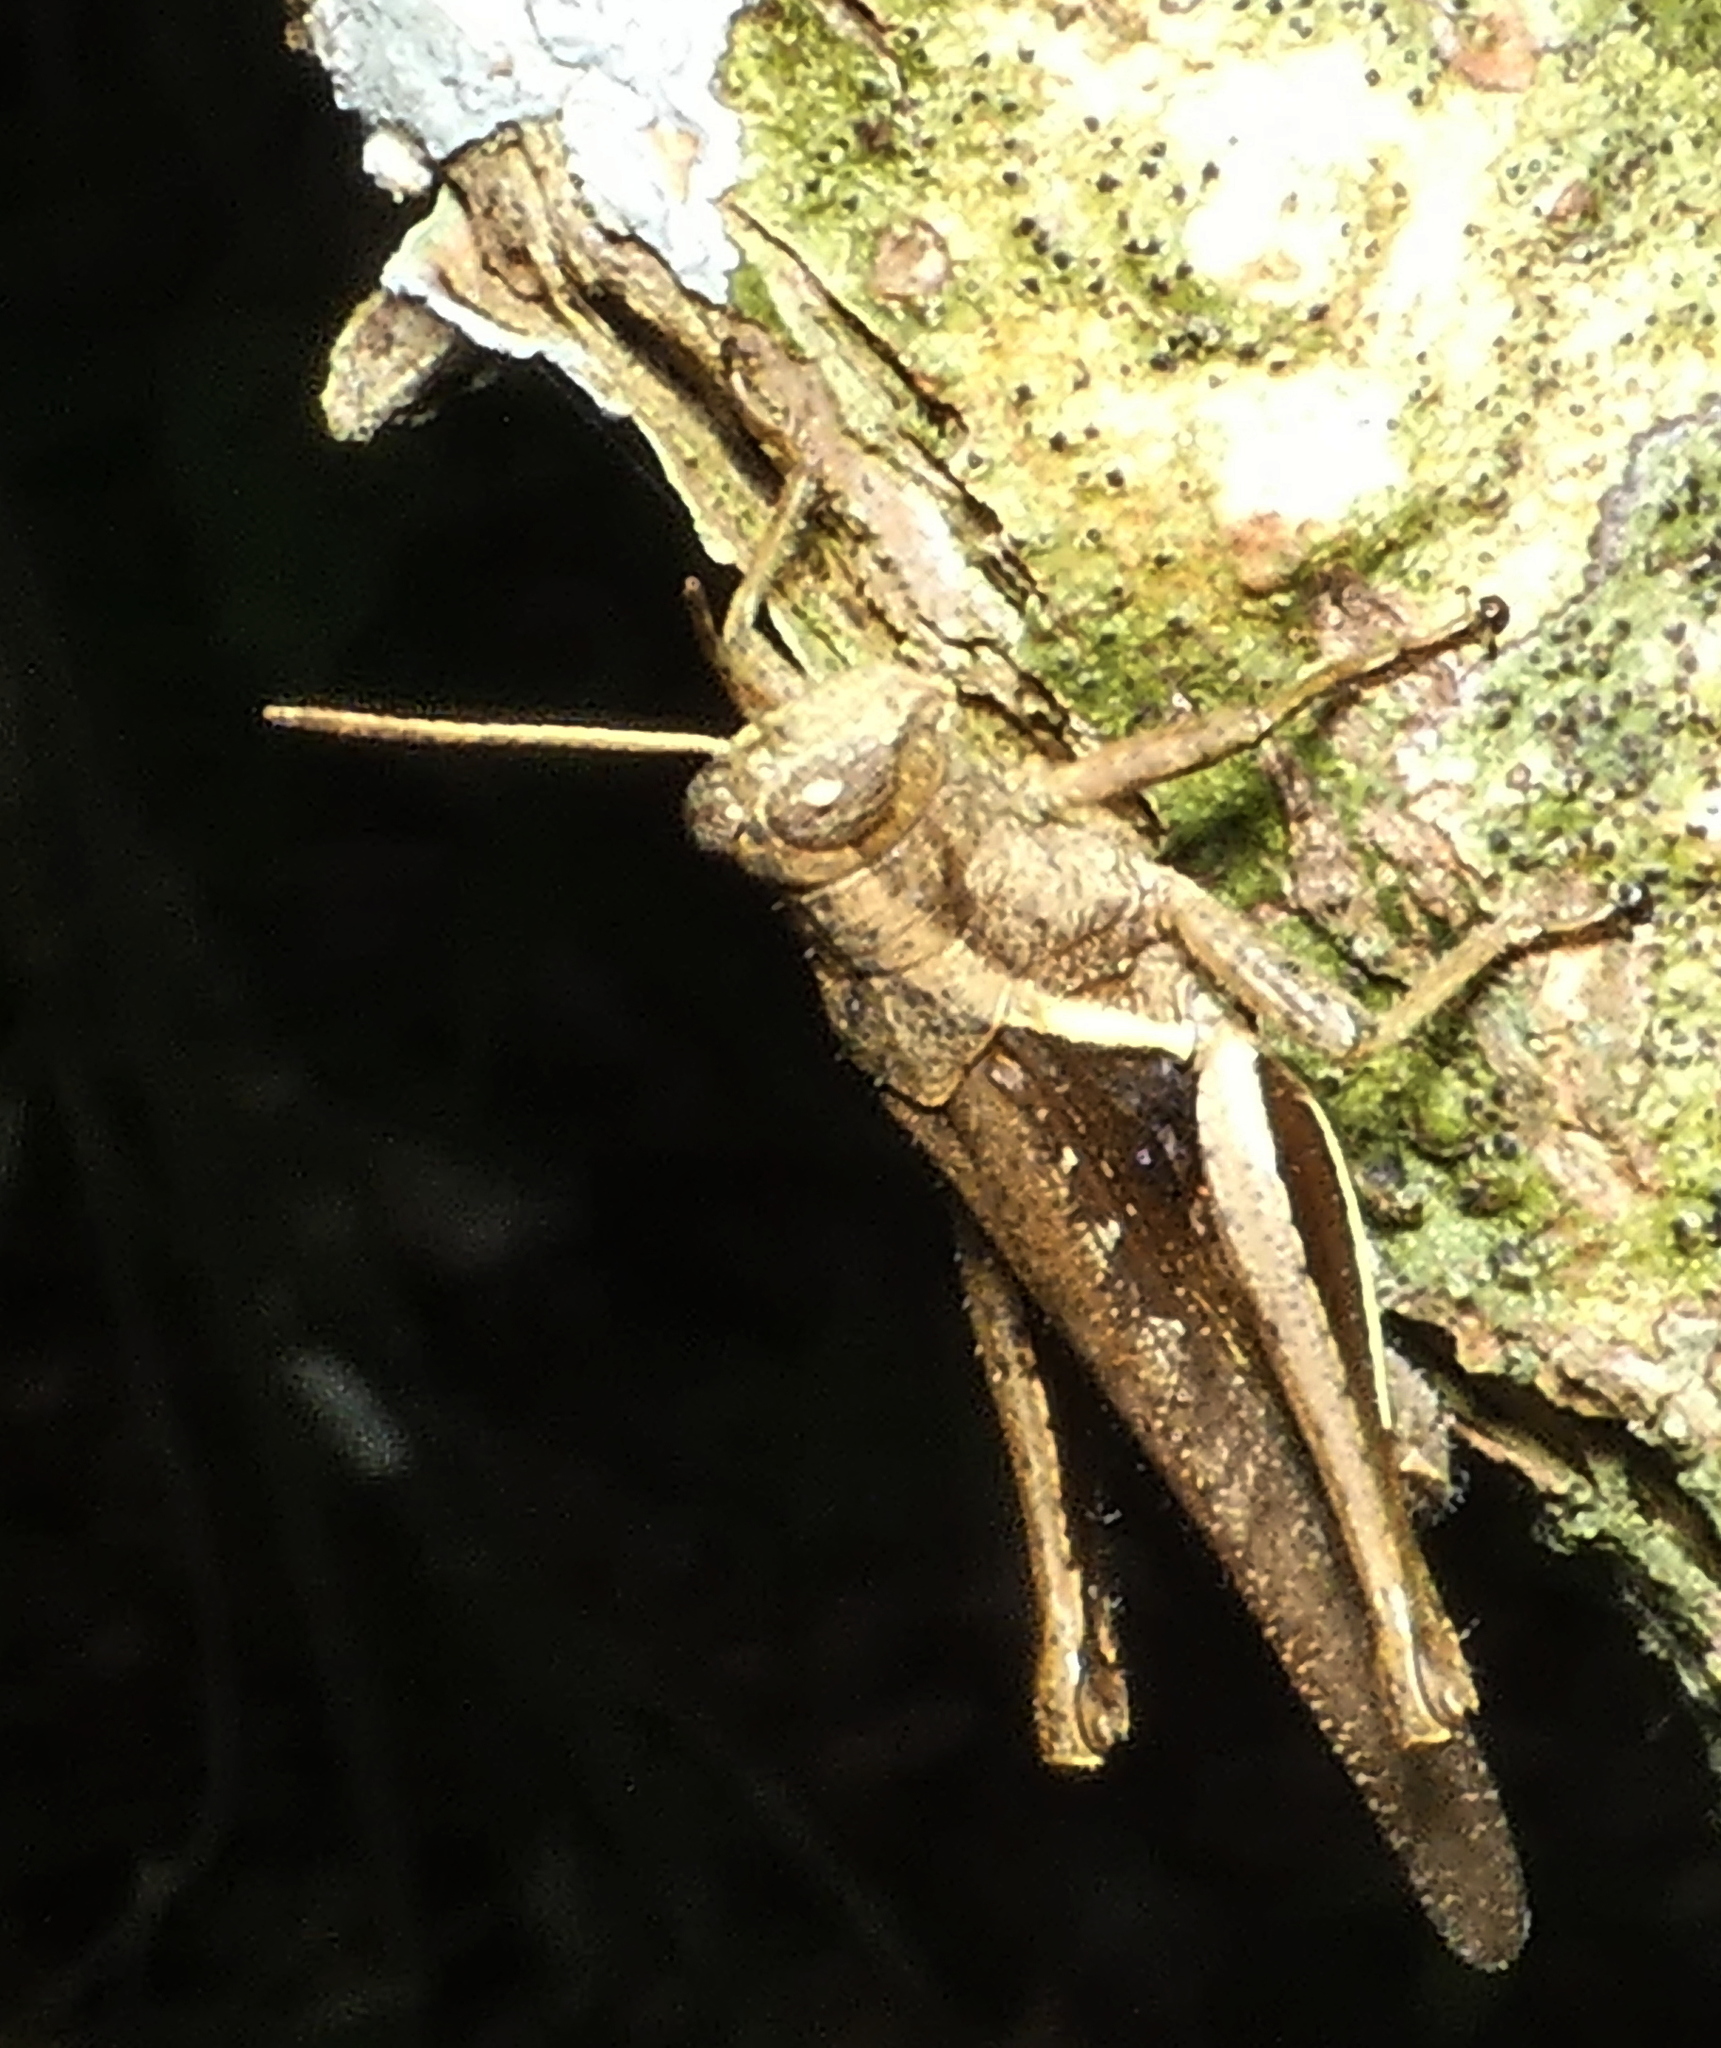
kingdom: Animalia
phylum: Arthropoda
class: Insecta
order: Orthoptera
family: Acrididae
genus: Abracris
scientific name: Abracris flavolineata
